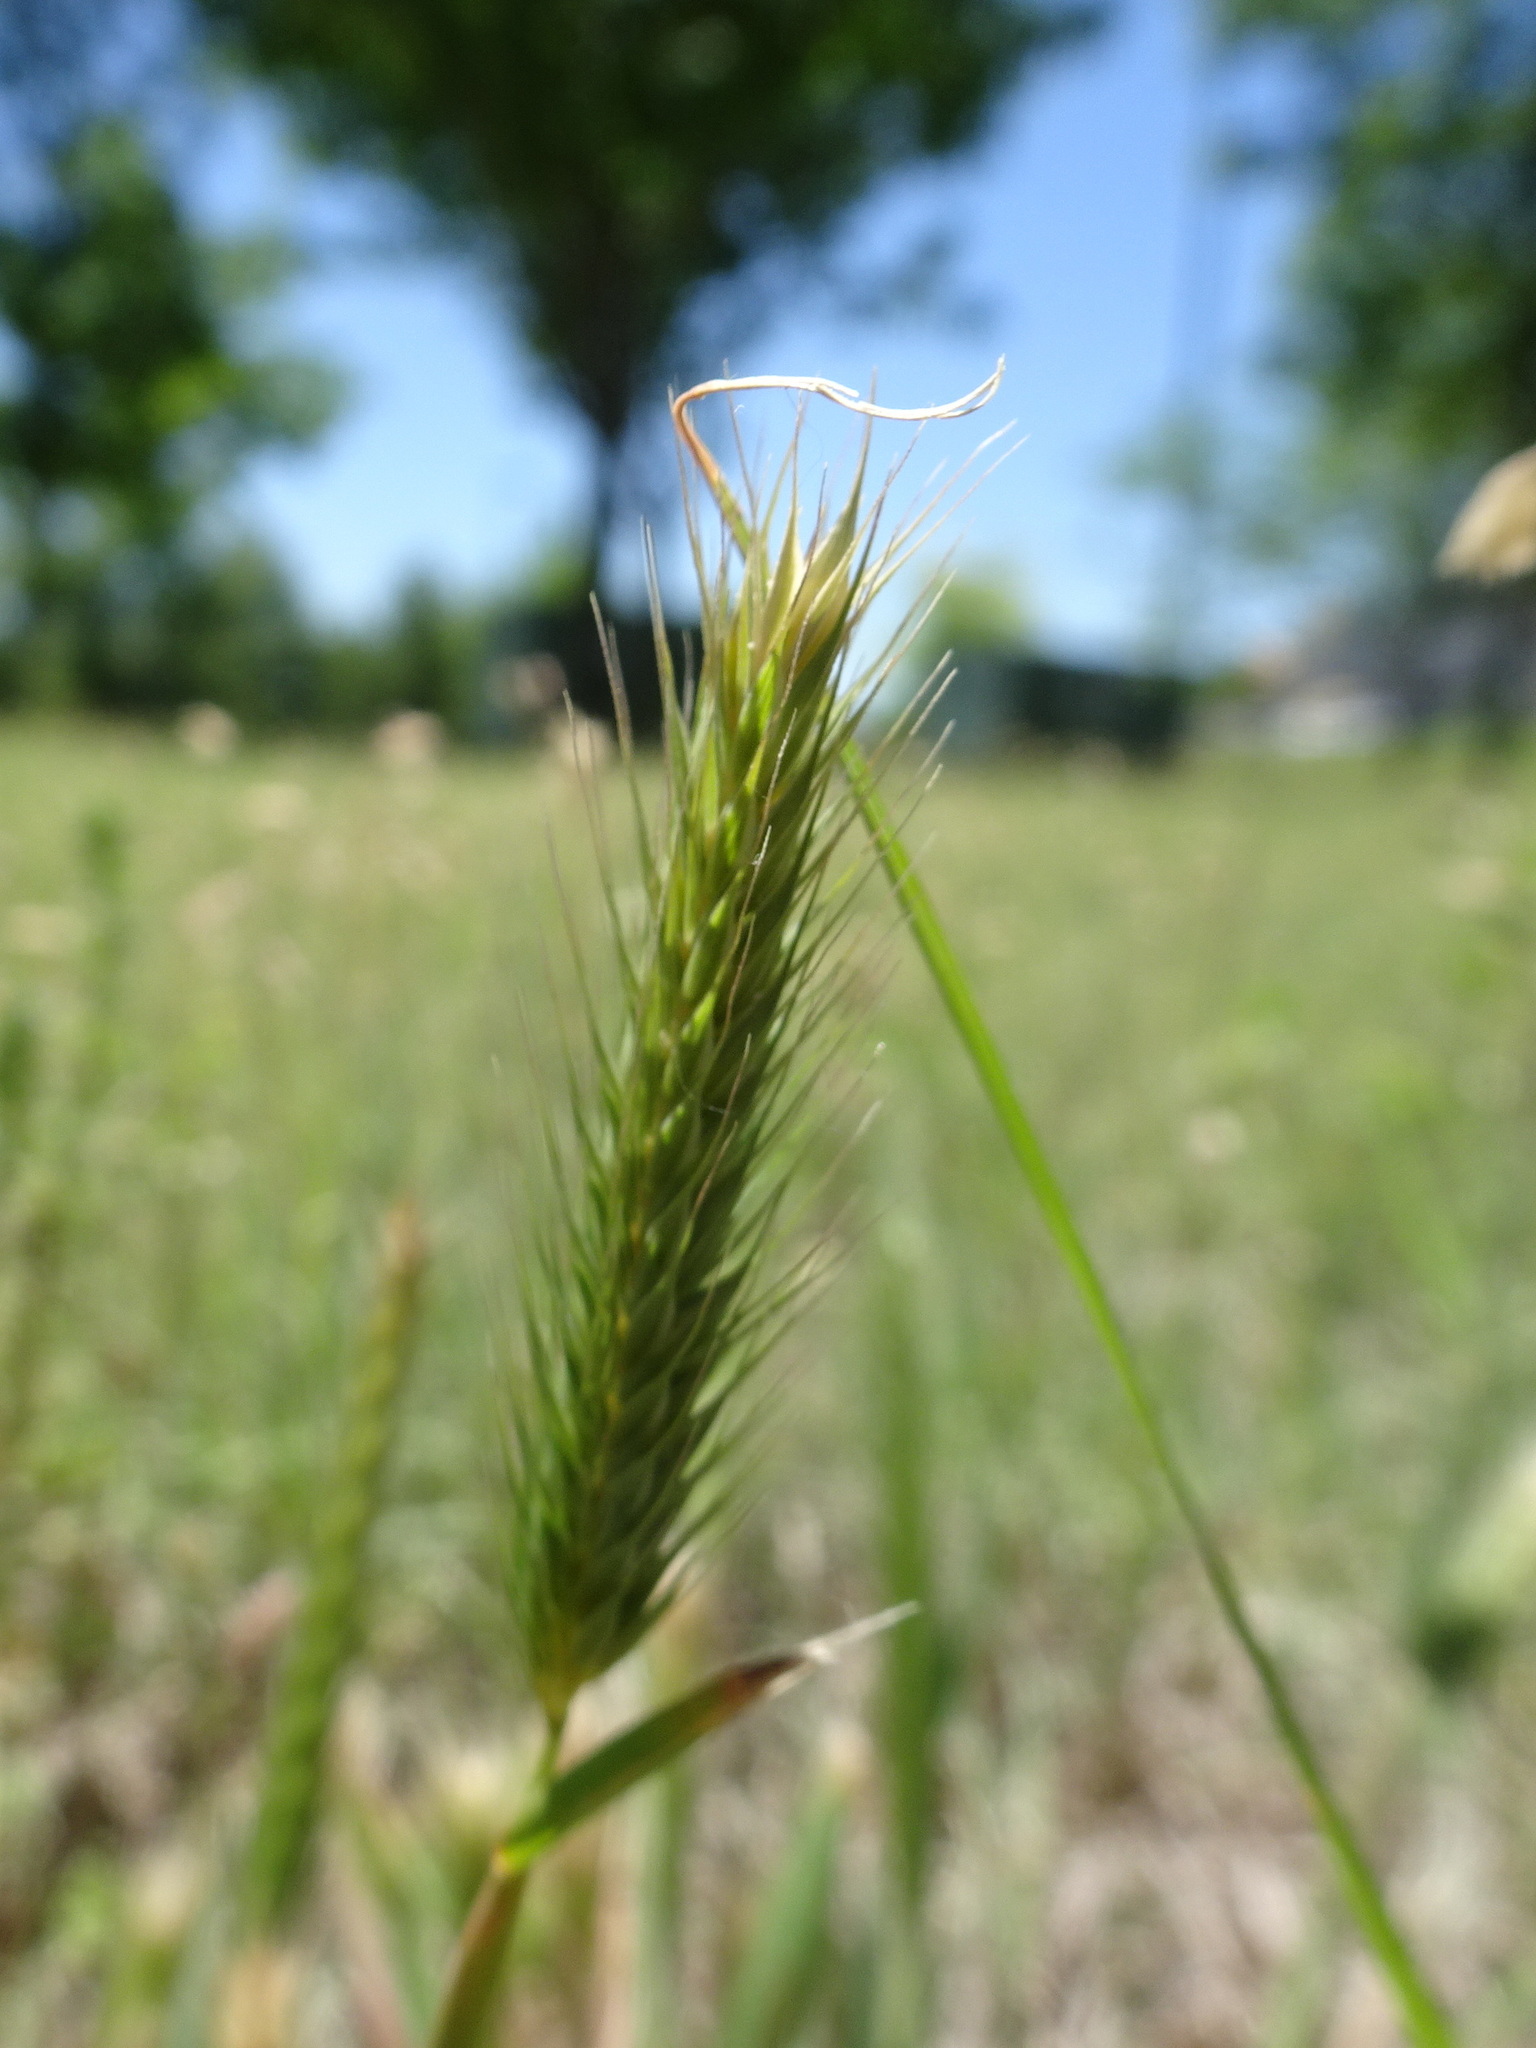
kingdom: Plantae
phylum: Tracheophyta
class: Liliopsida
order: Poales
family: Poaceae
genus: Hordeum
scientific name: Hordeum pusillum
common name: Little barley
